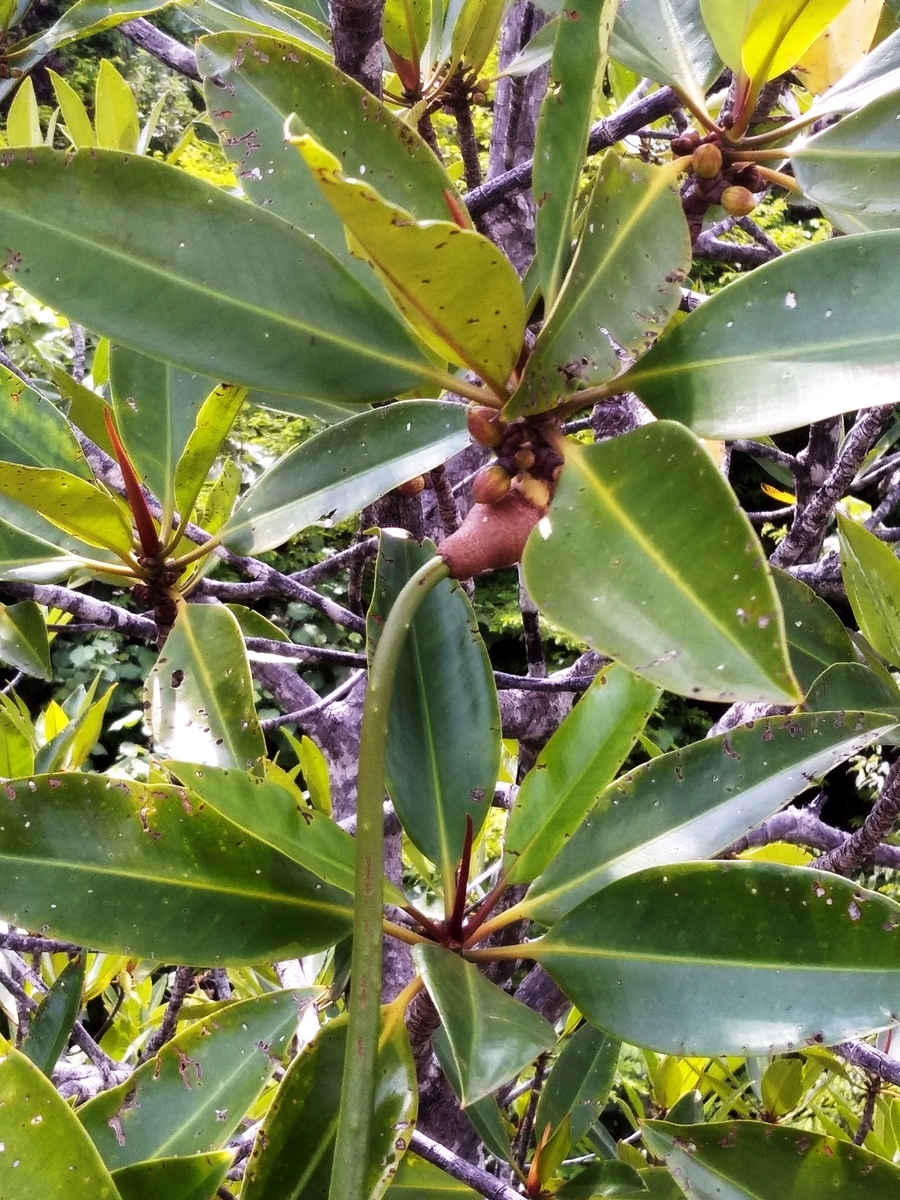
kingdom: Plantae
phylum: Tracheophyta
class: Magnoliopsida
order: Malpighiales
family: Rhizophoraceae
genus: Rhizophora
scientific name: Rhizophora apiculata
